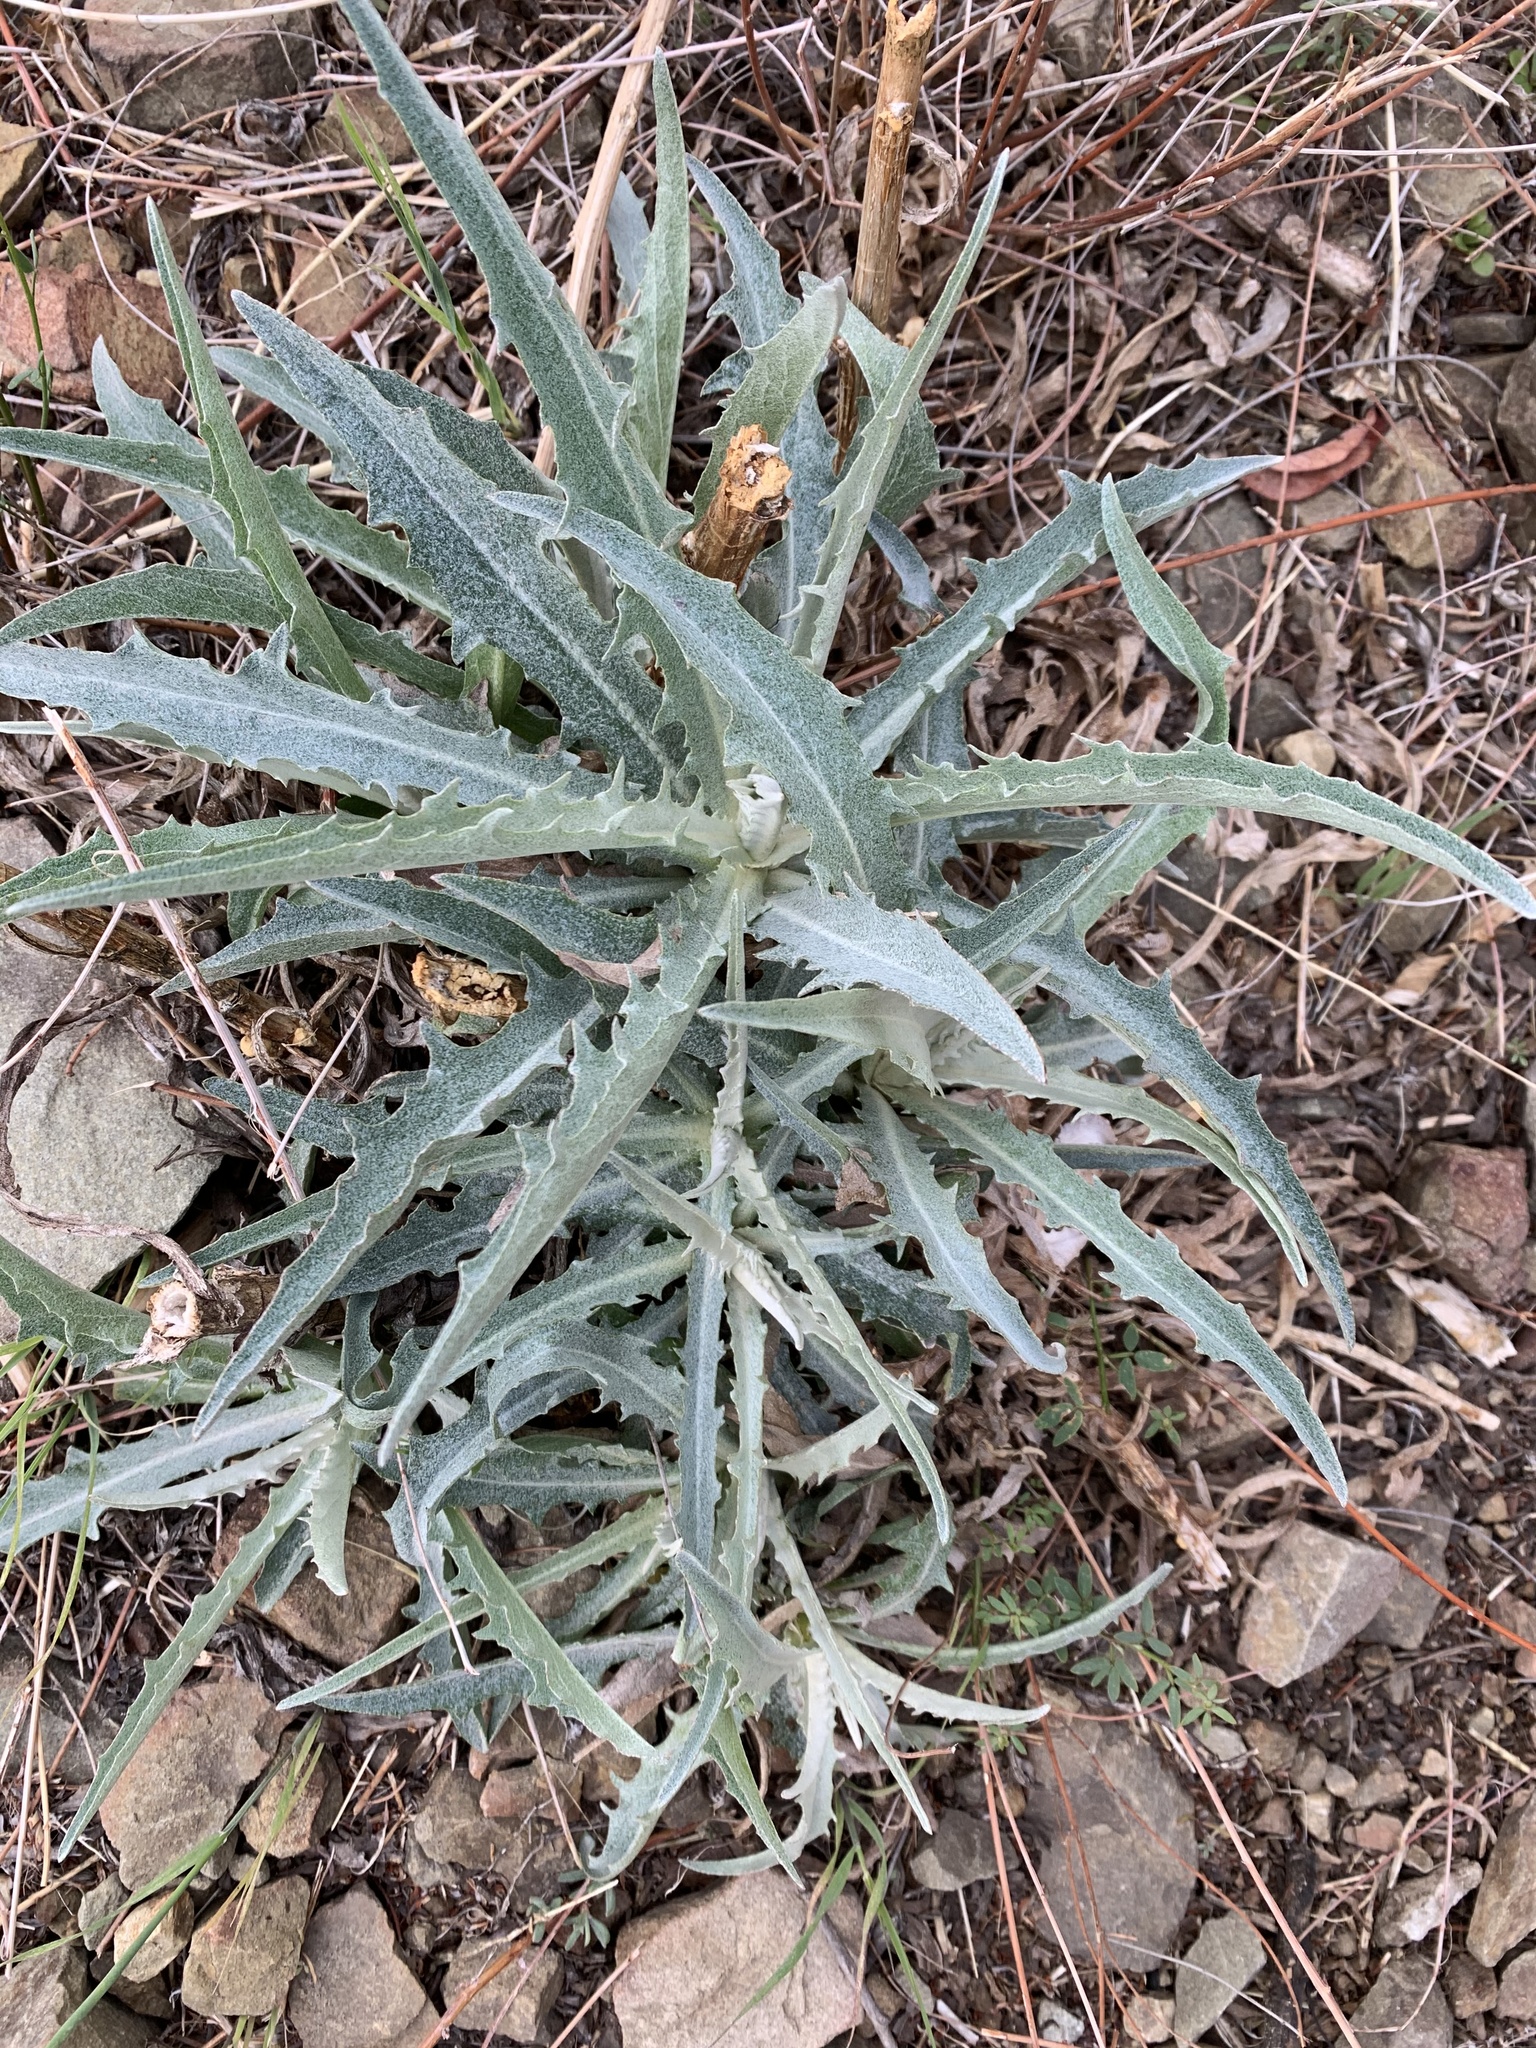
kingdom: Plantae
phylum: Tracheophyta
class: Magnoliopsida
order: Asterales
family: Asteraceae
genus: Stephanomeria
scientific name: Stephanomeria cichoriacea
